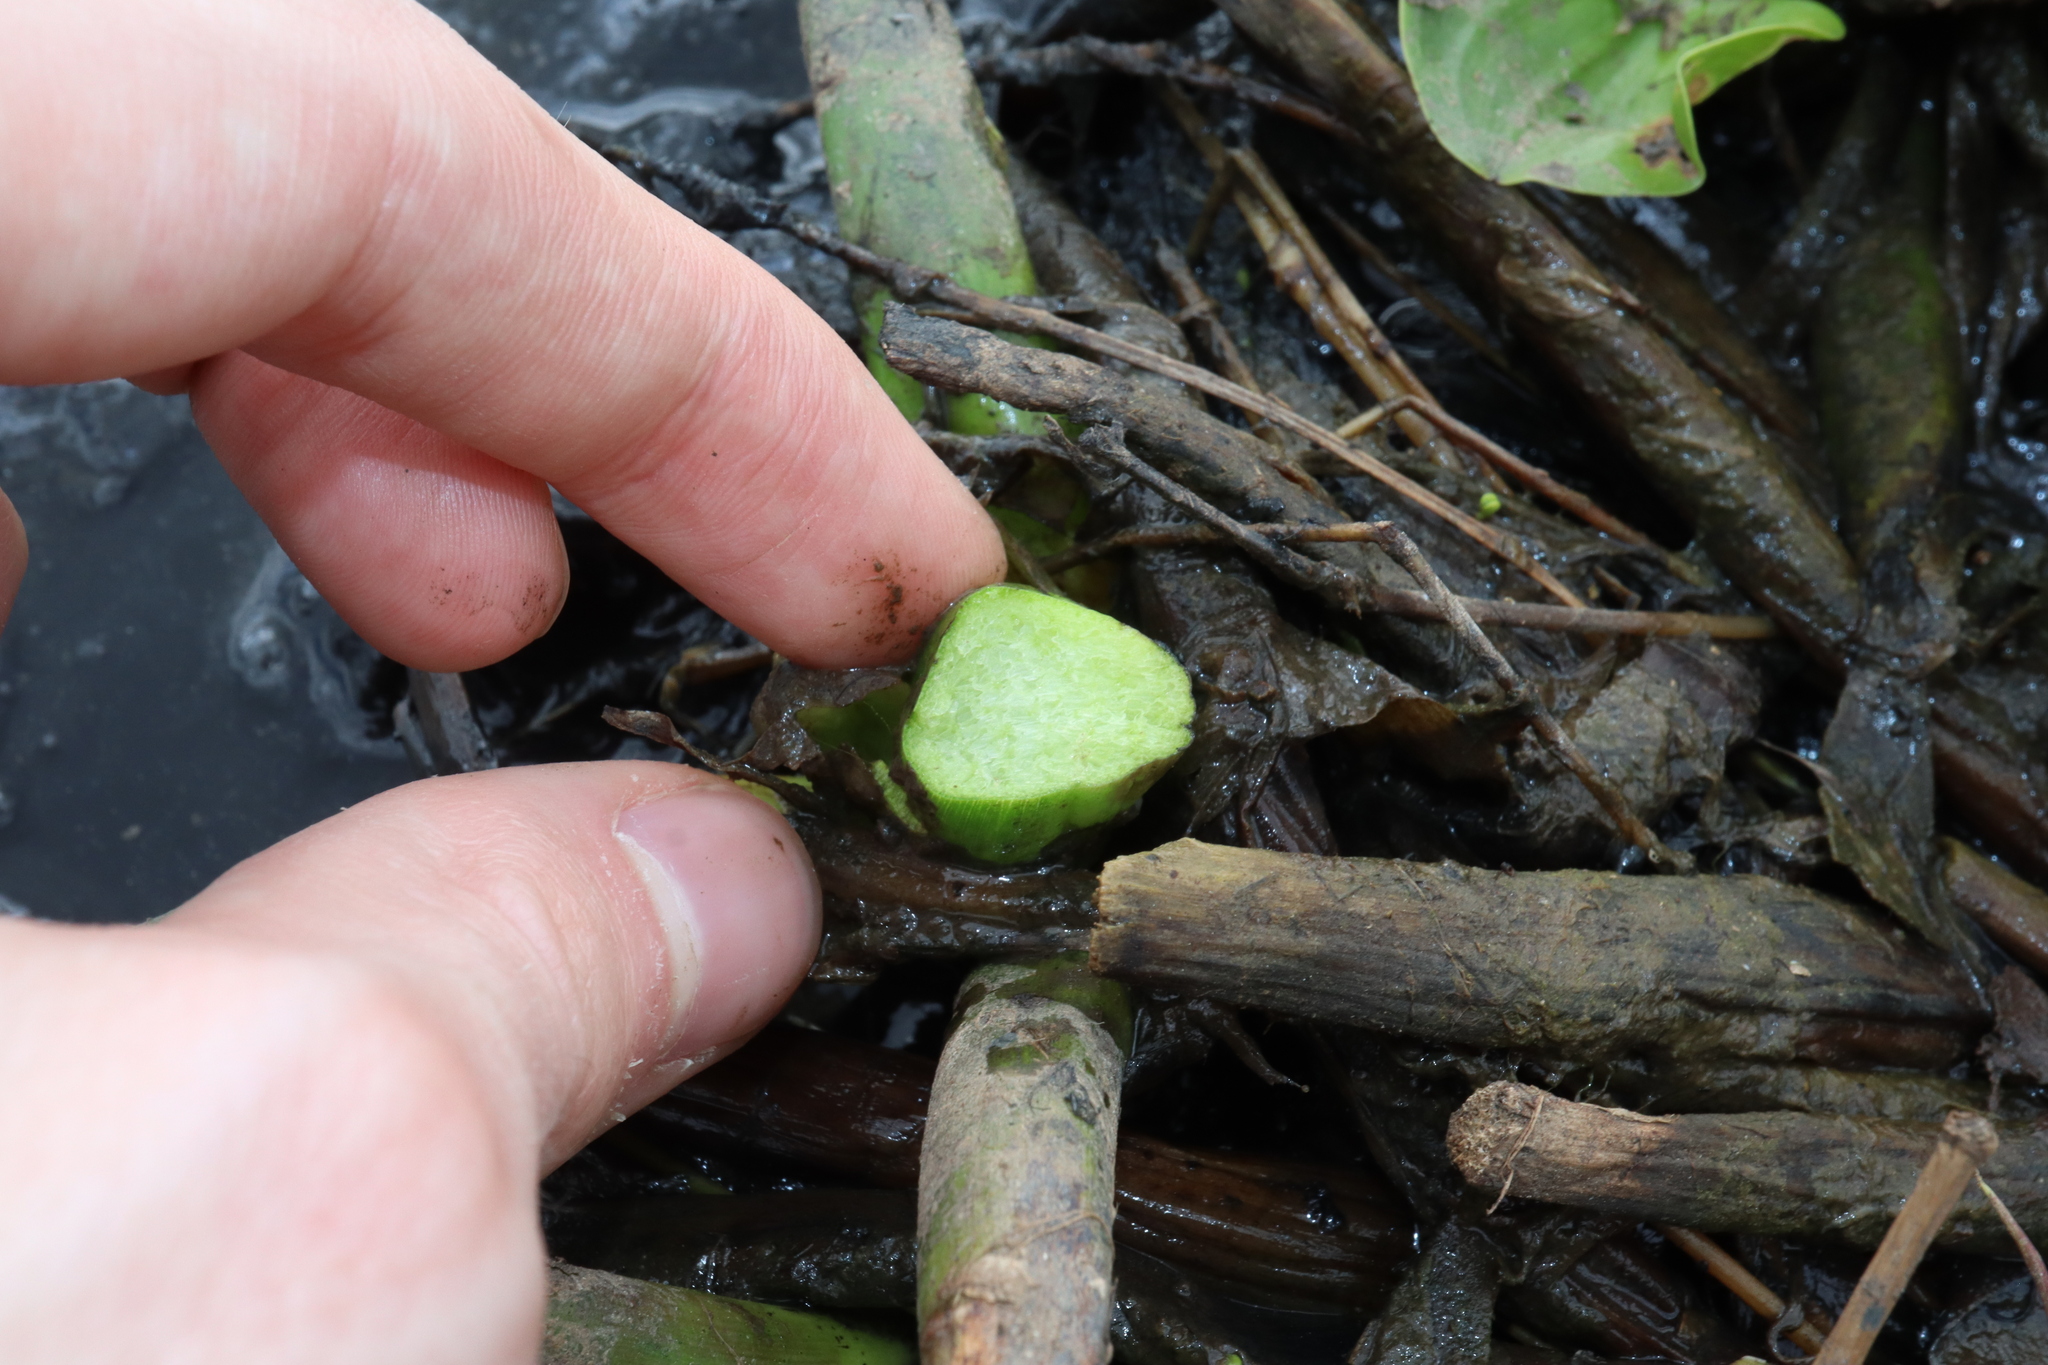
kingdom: Plantae
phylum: Tracheophyta
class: Liliopsida
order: Commelinales
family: Pontederiaceae
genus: Pontederia
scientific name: Pontederia crassipes
